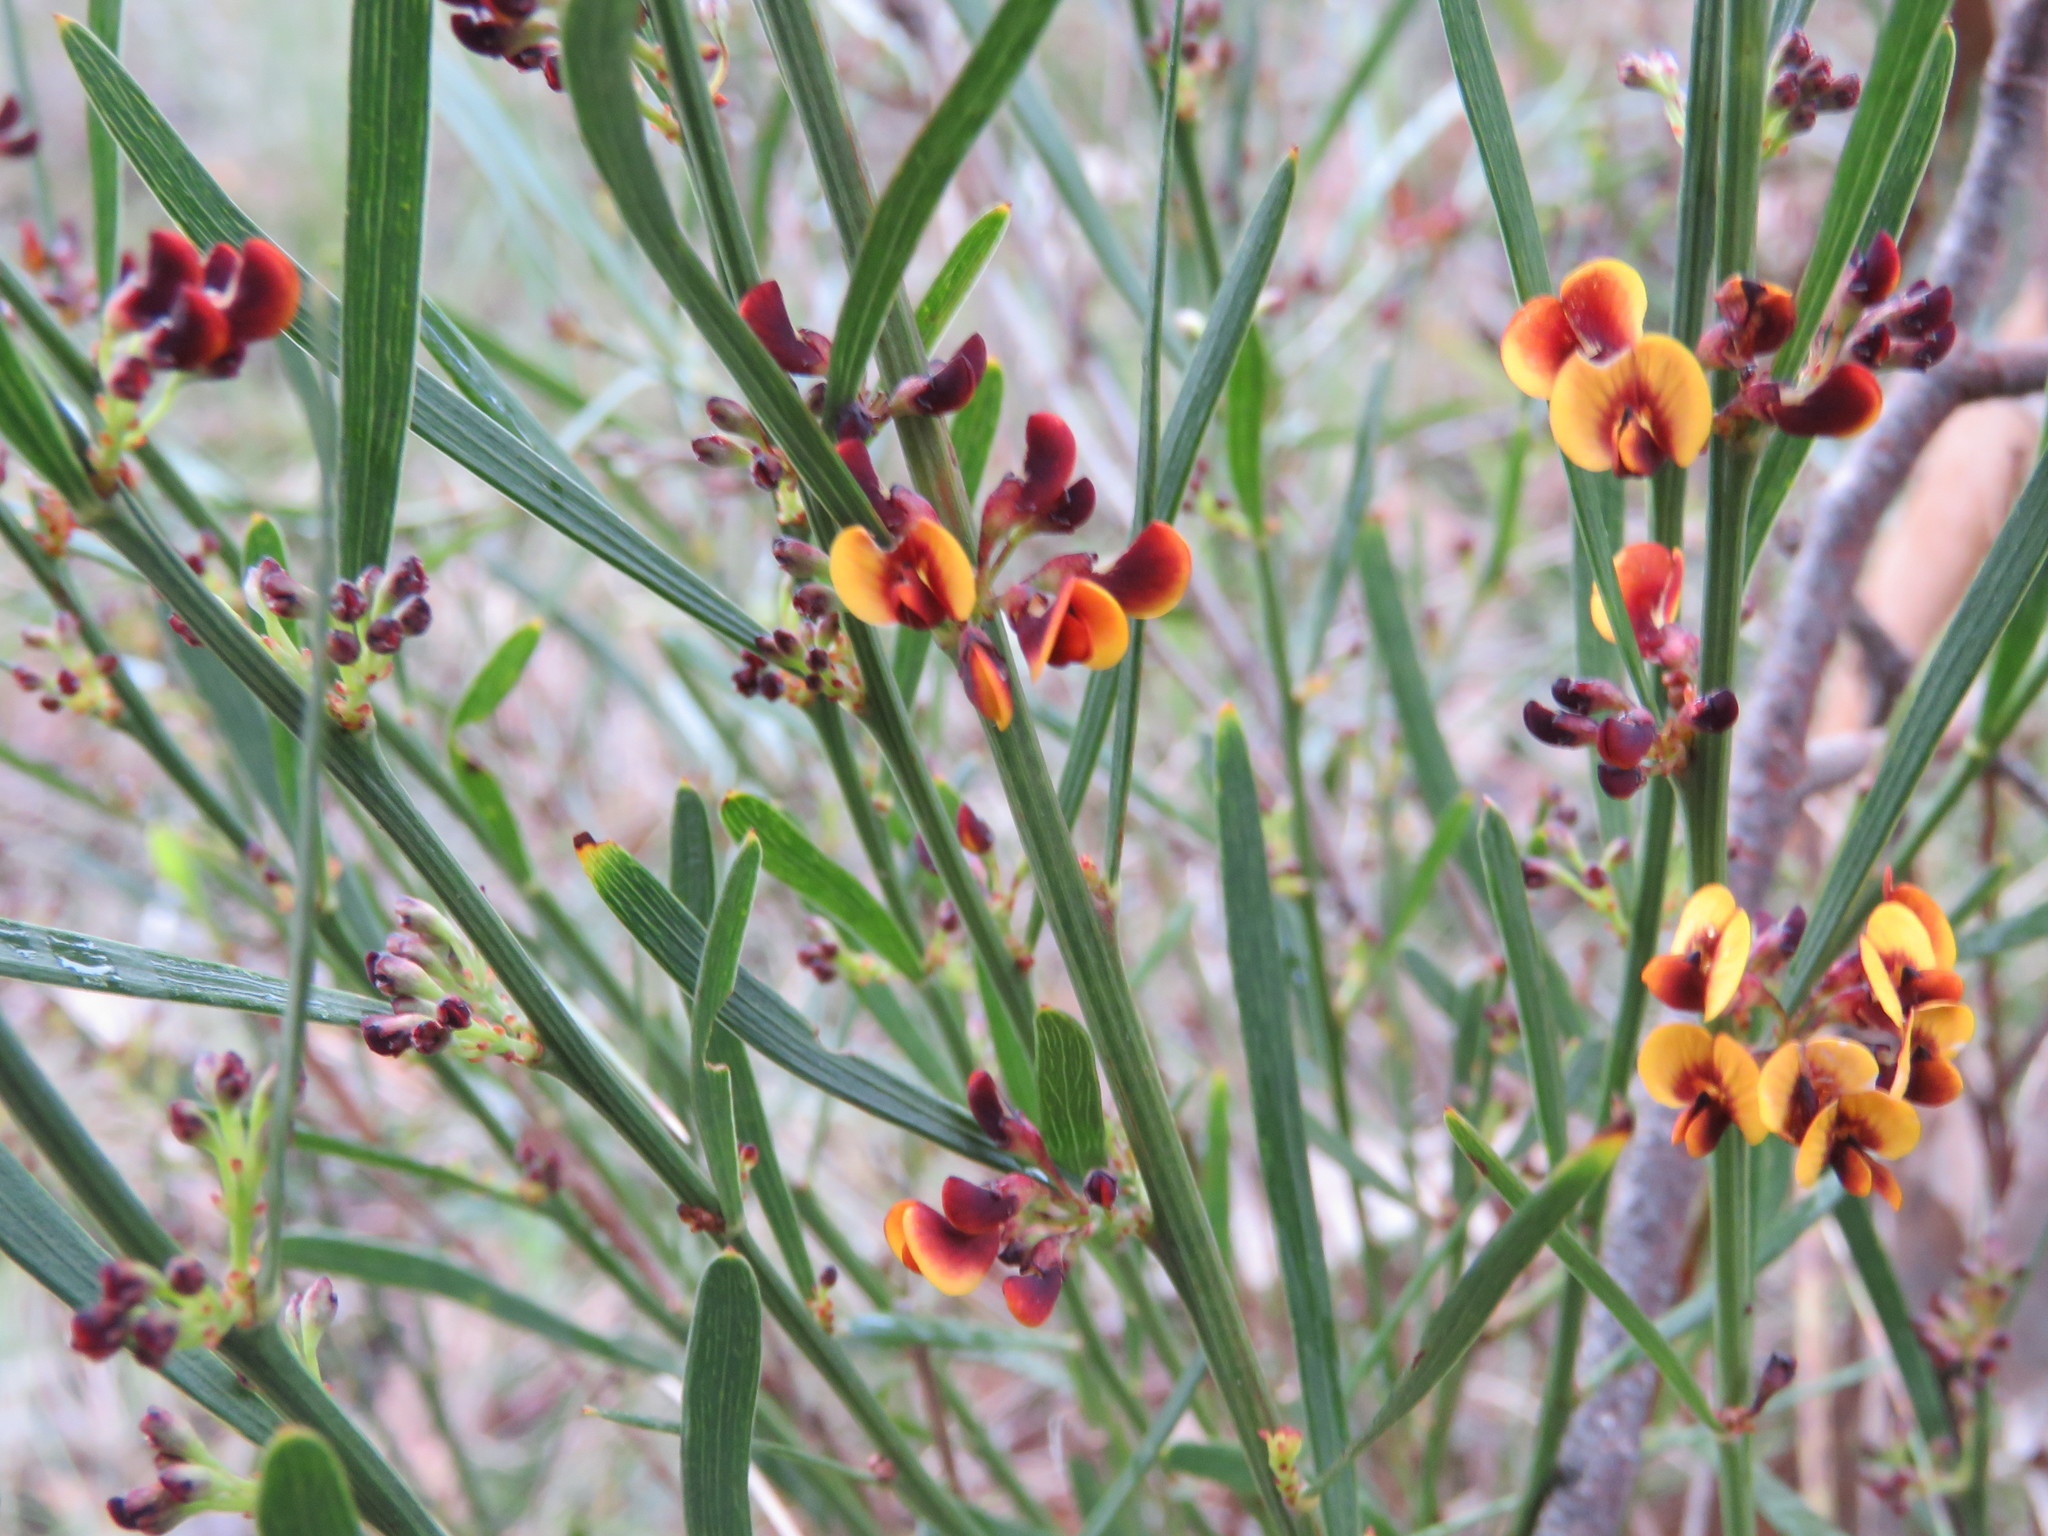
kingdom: Plantae
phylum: Tracheophyta
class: Magnoliopsida
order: Fabales
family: Fabaceae
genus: Daviesia
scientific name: Daviesia leptophylla
